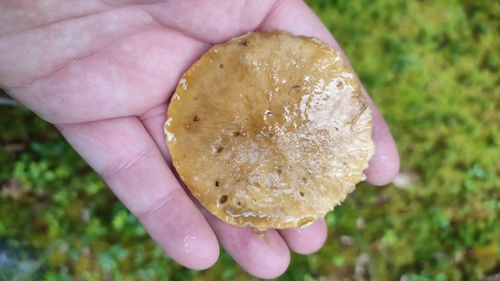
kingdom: Fungi
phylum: Basidiomycota
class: Agaricomycetes
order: Boletales
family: Suillaceae
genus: Suillus
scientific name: Suillus acidus
